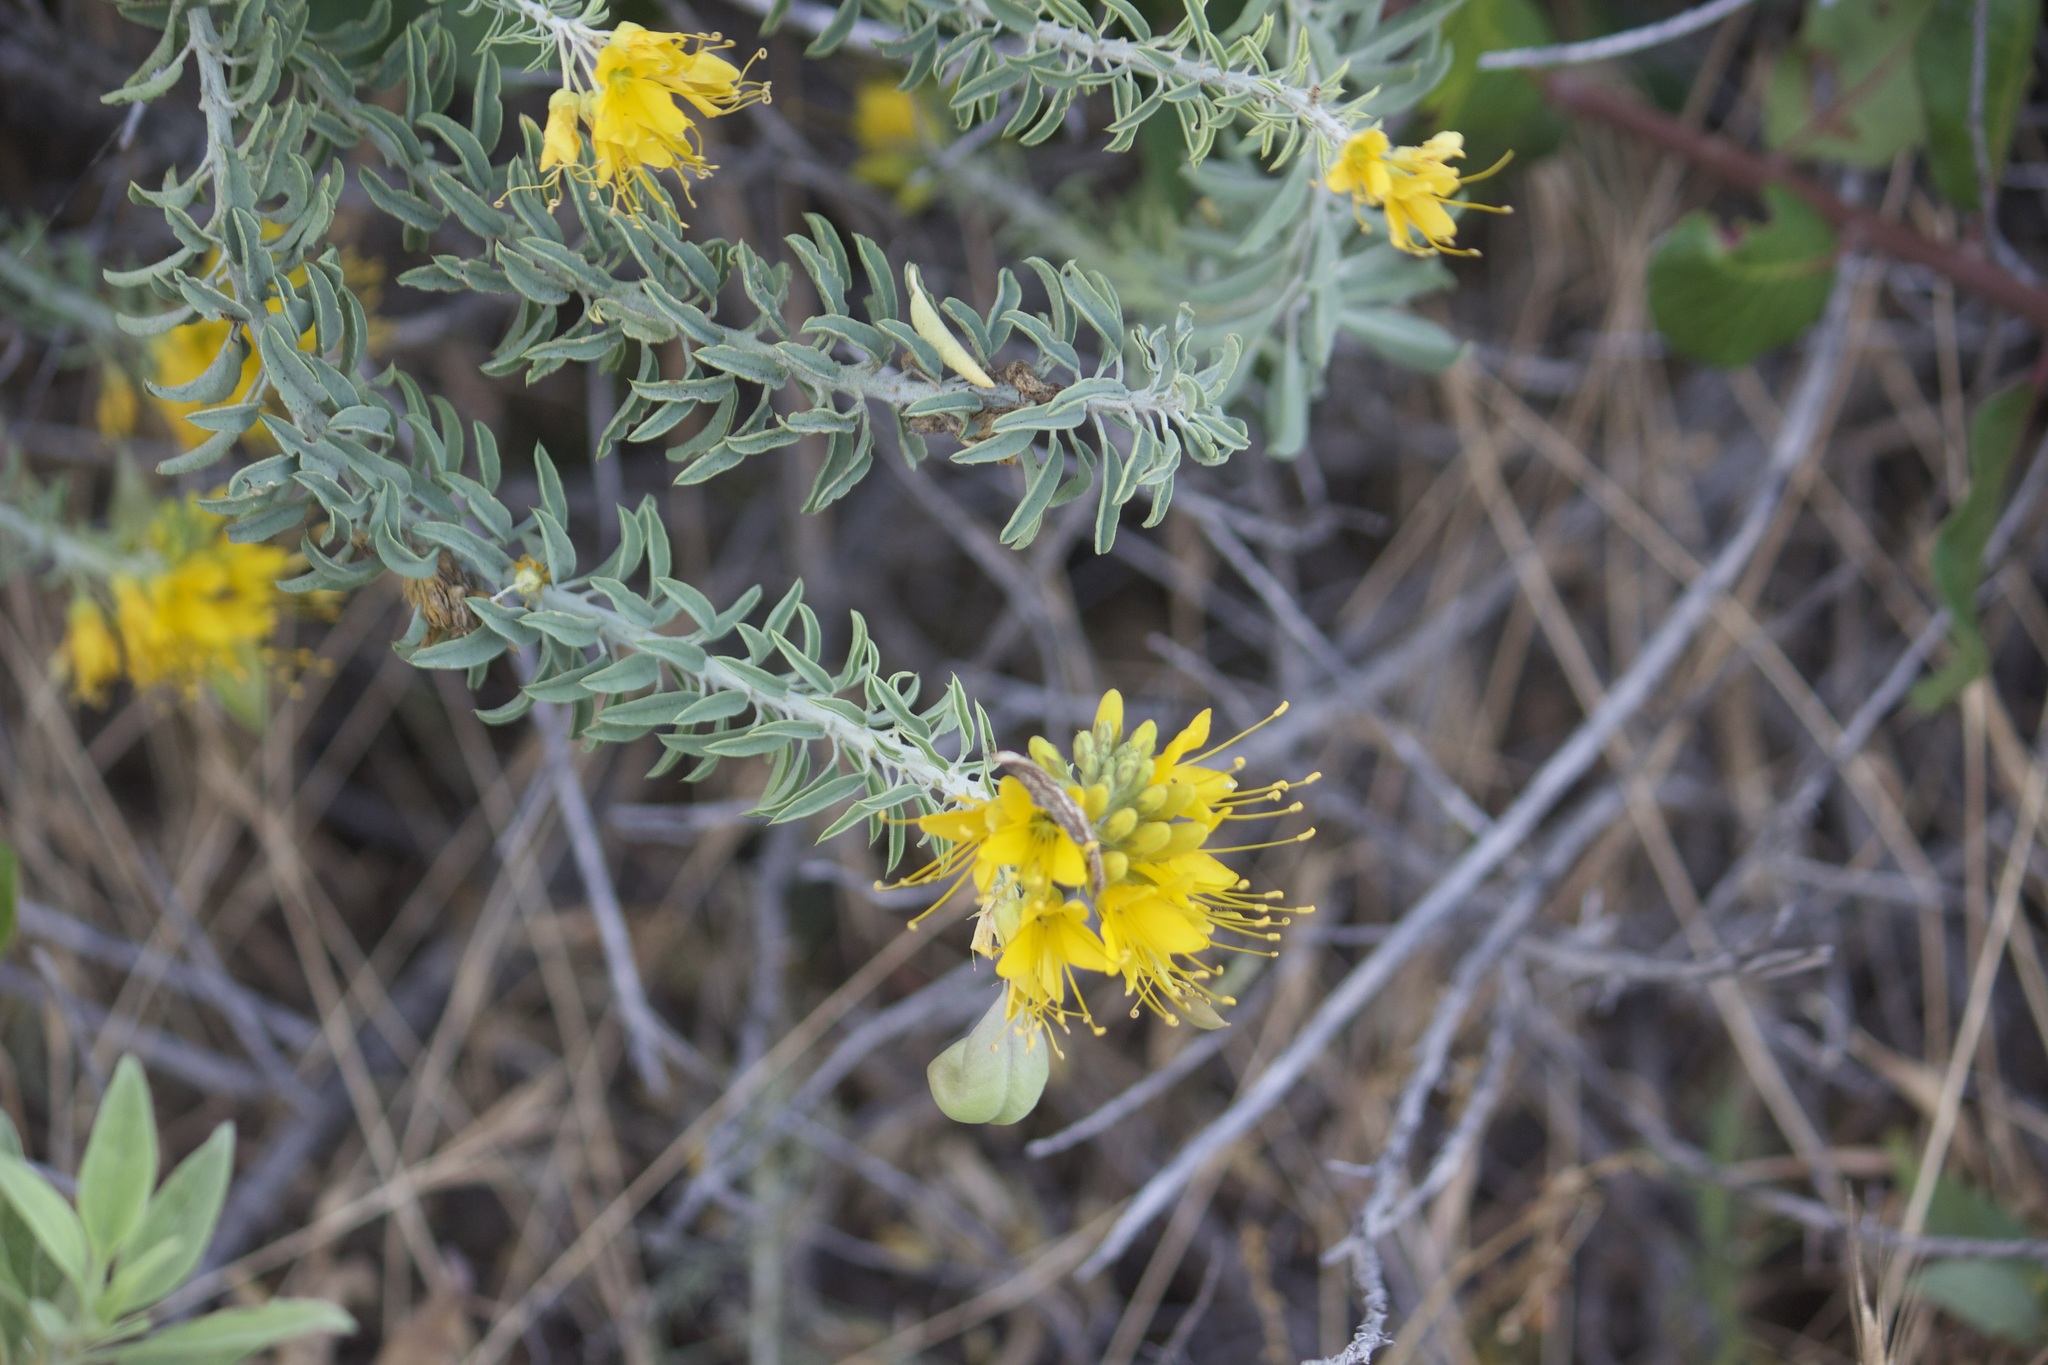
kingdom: Plantae
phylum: Tracheophyta
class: Magnoliopsida
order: Brassicales
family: Cleomaceae
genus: Cleomella
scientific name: Cleomella arborea
